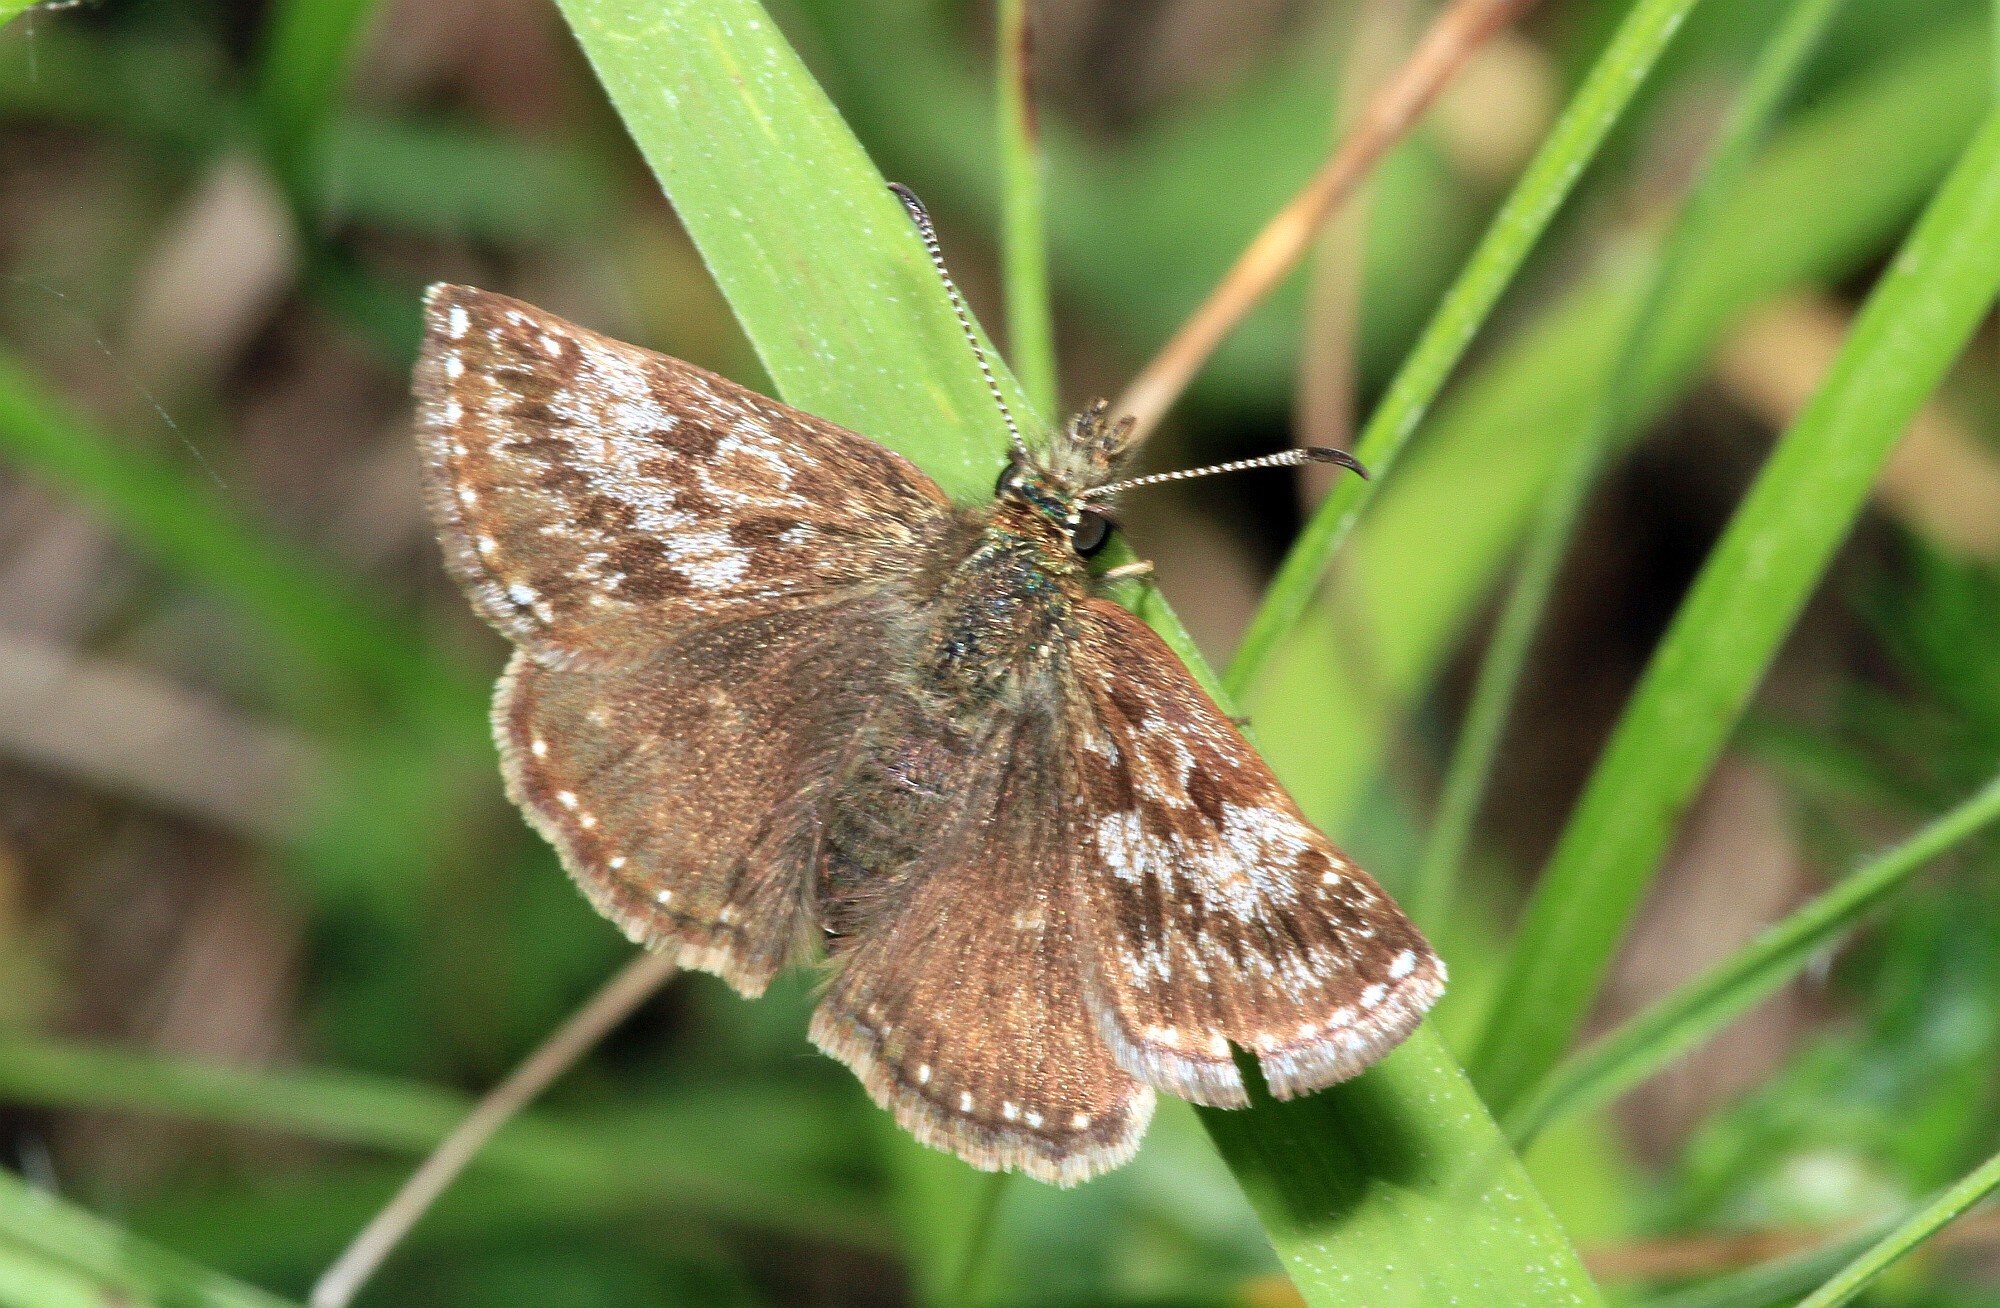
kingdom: Animalia
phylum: Arthropoda
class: Insecta
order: Lepidoptera
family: Hesperiidae
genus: Erynnis
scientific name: Erynnis tages
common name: Dingy skipper
